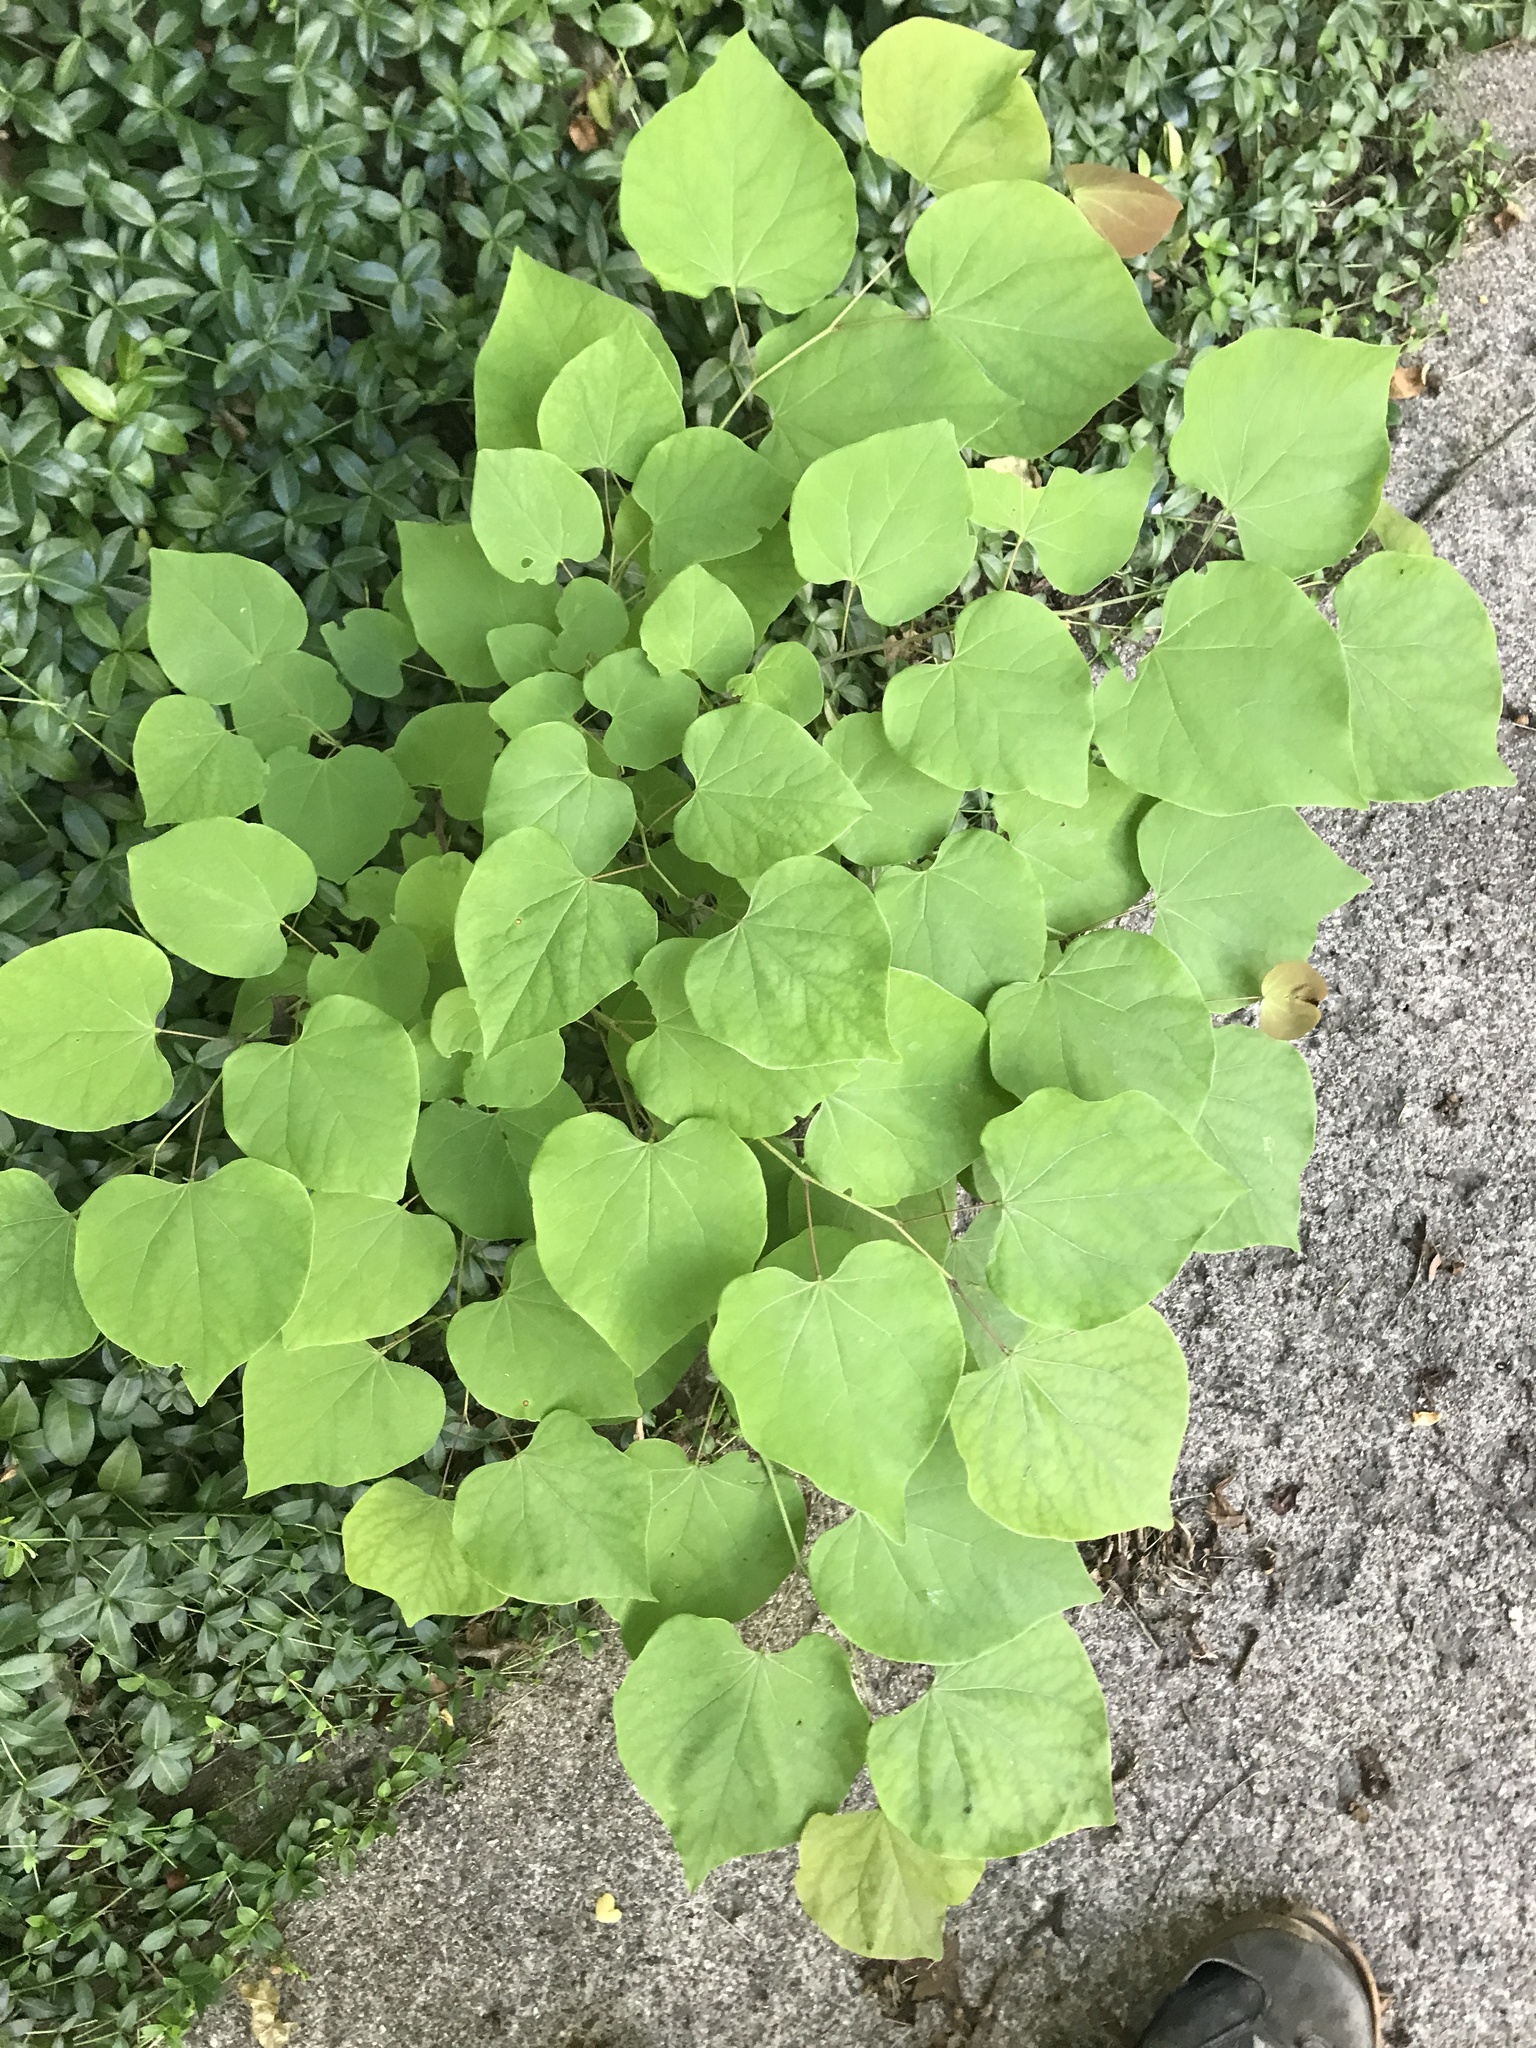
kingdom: Plantae
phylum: Tracheophyta
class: Magnoliopsida
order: Fabales
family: Fabaceae
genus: Cercis
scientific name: Cercis canadensis
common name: Eastern redbud
